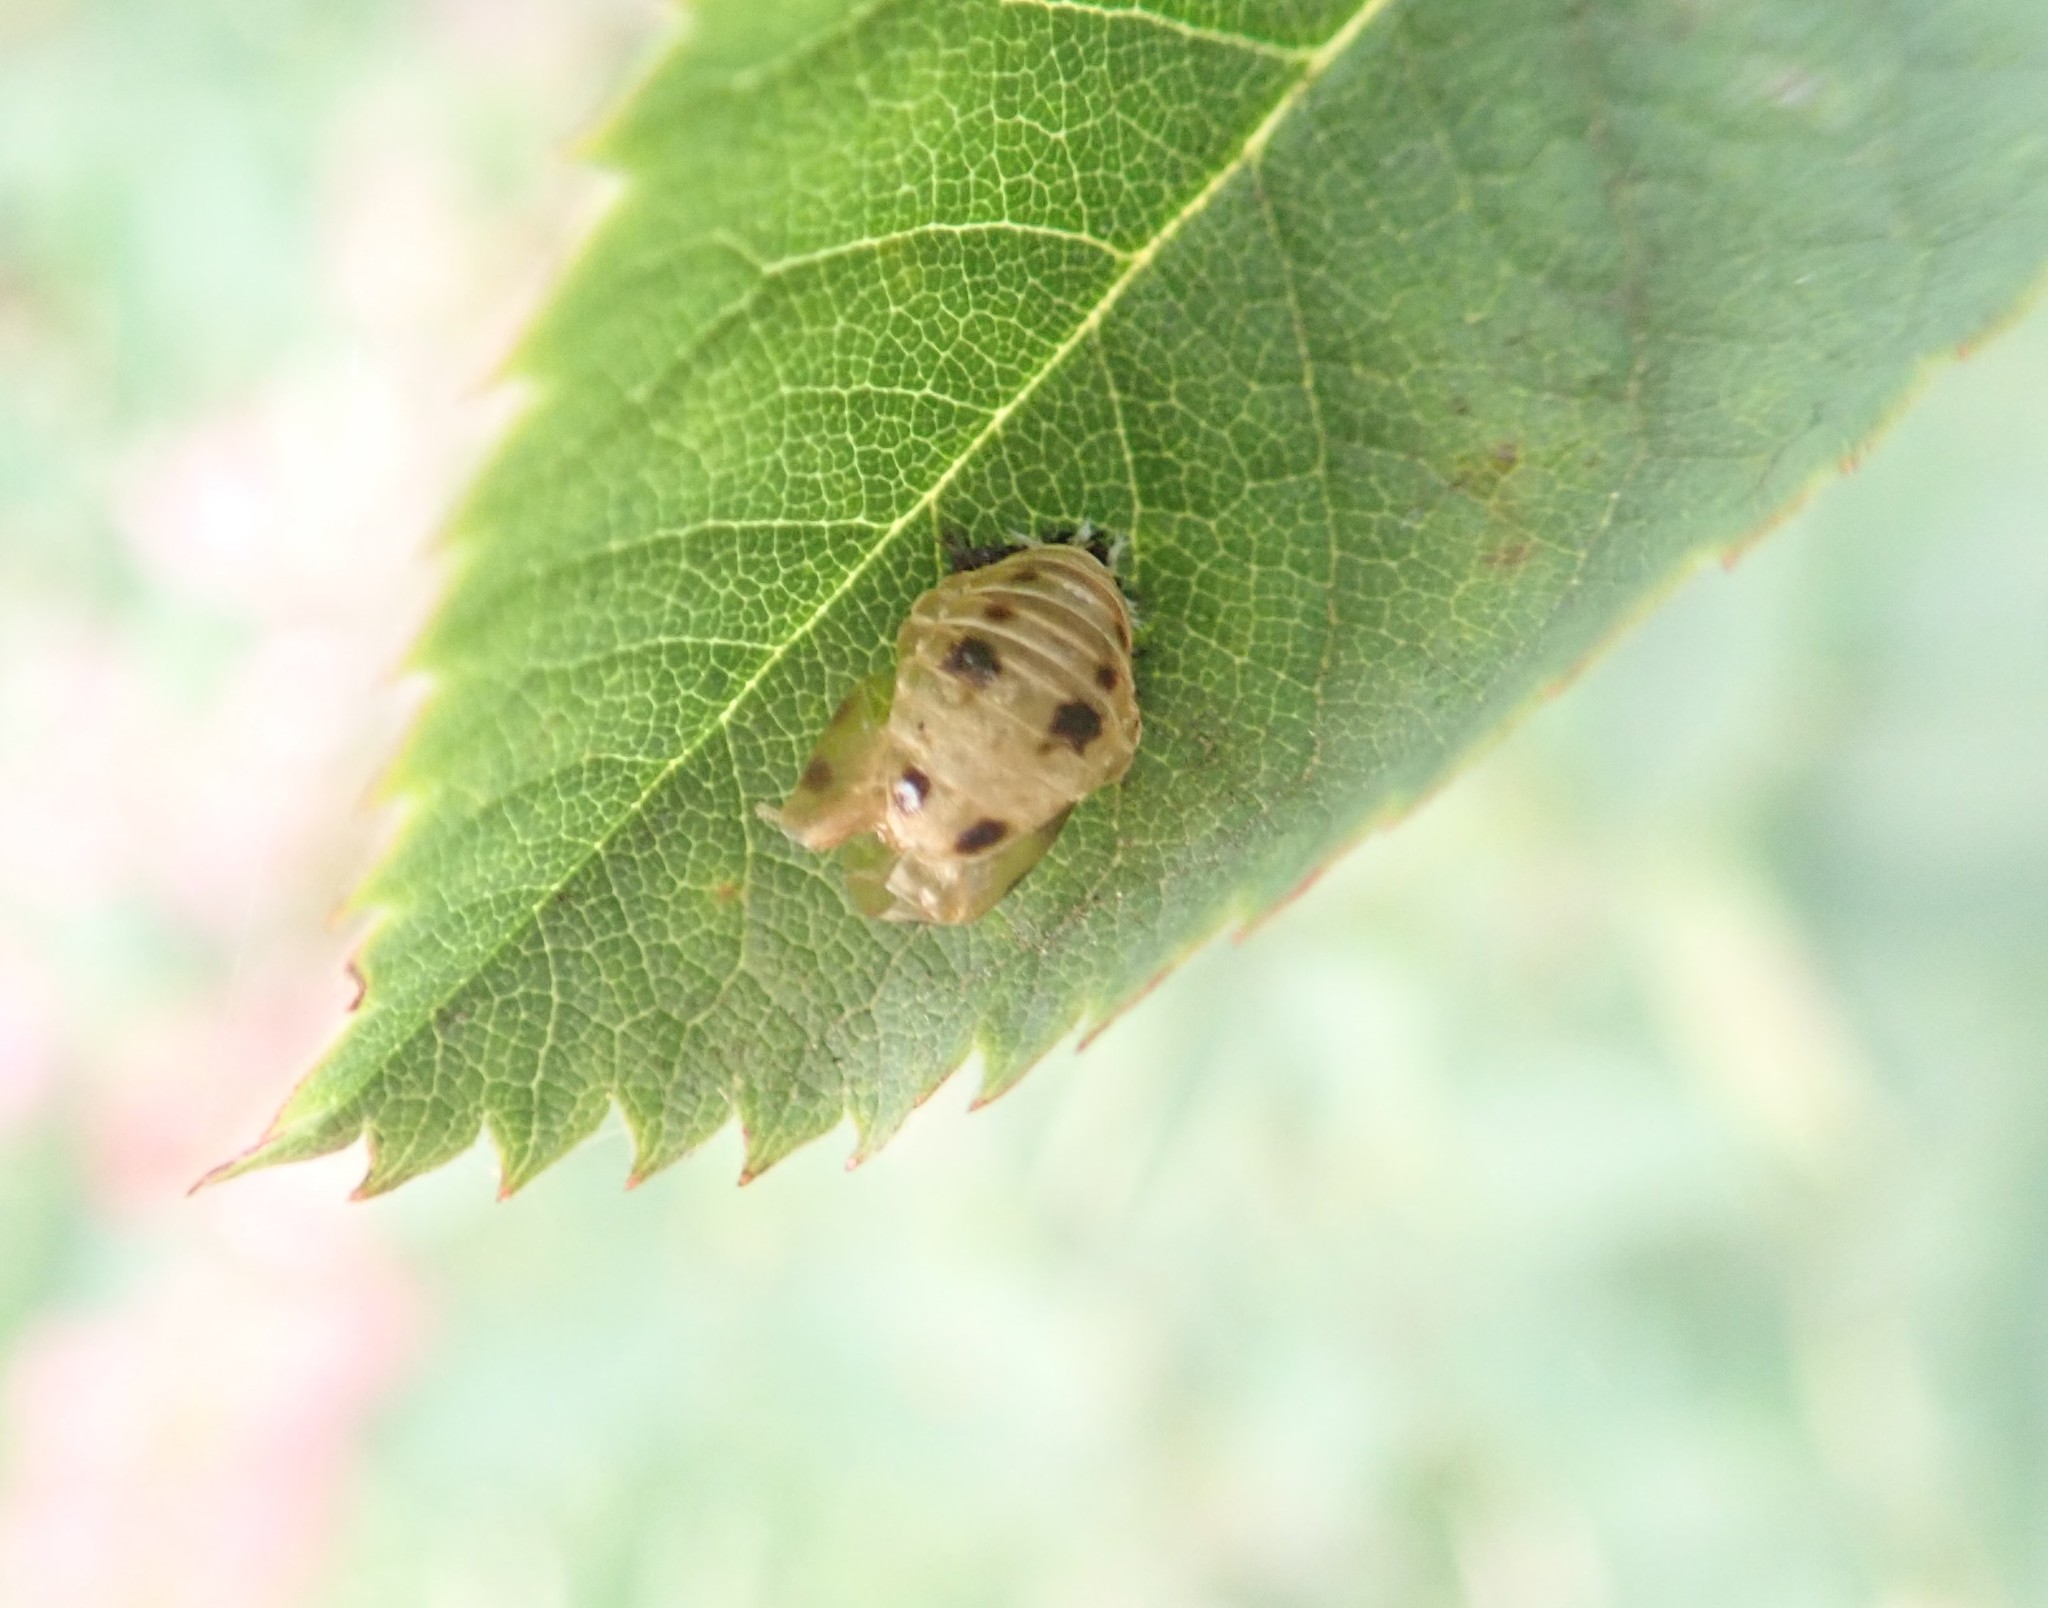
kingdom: Animalia
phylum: Arthropoda
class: Insecta
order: Coleoptera
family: Coccinellidae
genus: Harmonia
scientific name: Harmonia axyridis
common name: Harlequin ladybird
